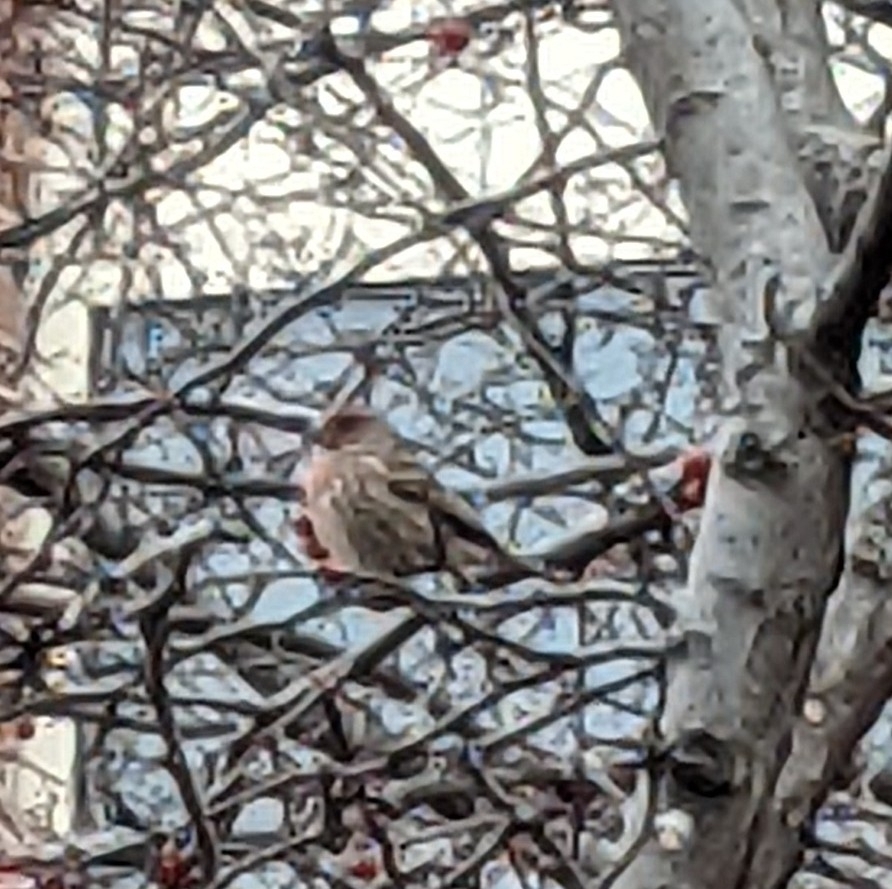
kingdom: Animalia
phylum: Chordata
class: Aves
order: Passeriformes
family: Fringillidae
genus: Haemorhous
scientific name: Haemorhous mexicanus
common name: House finch
